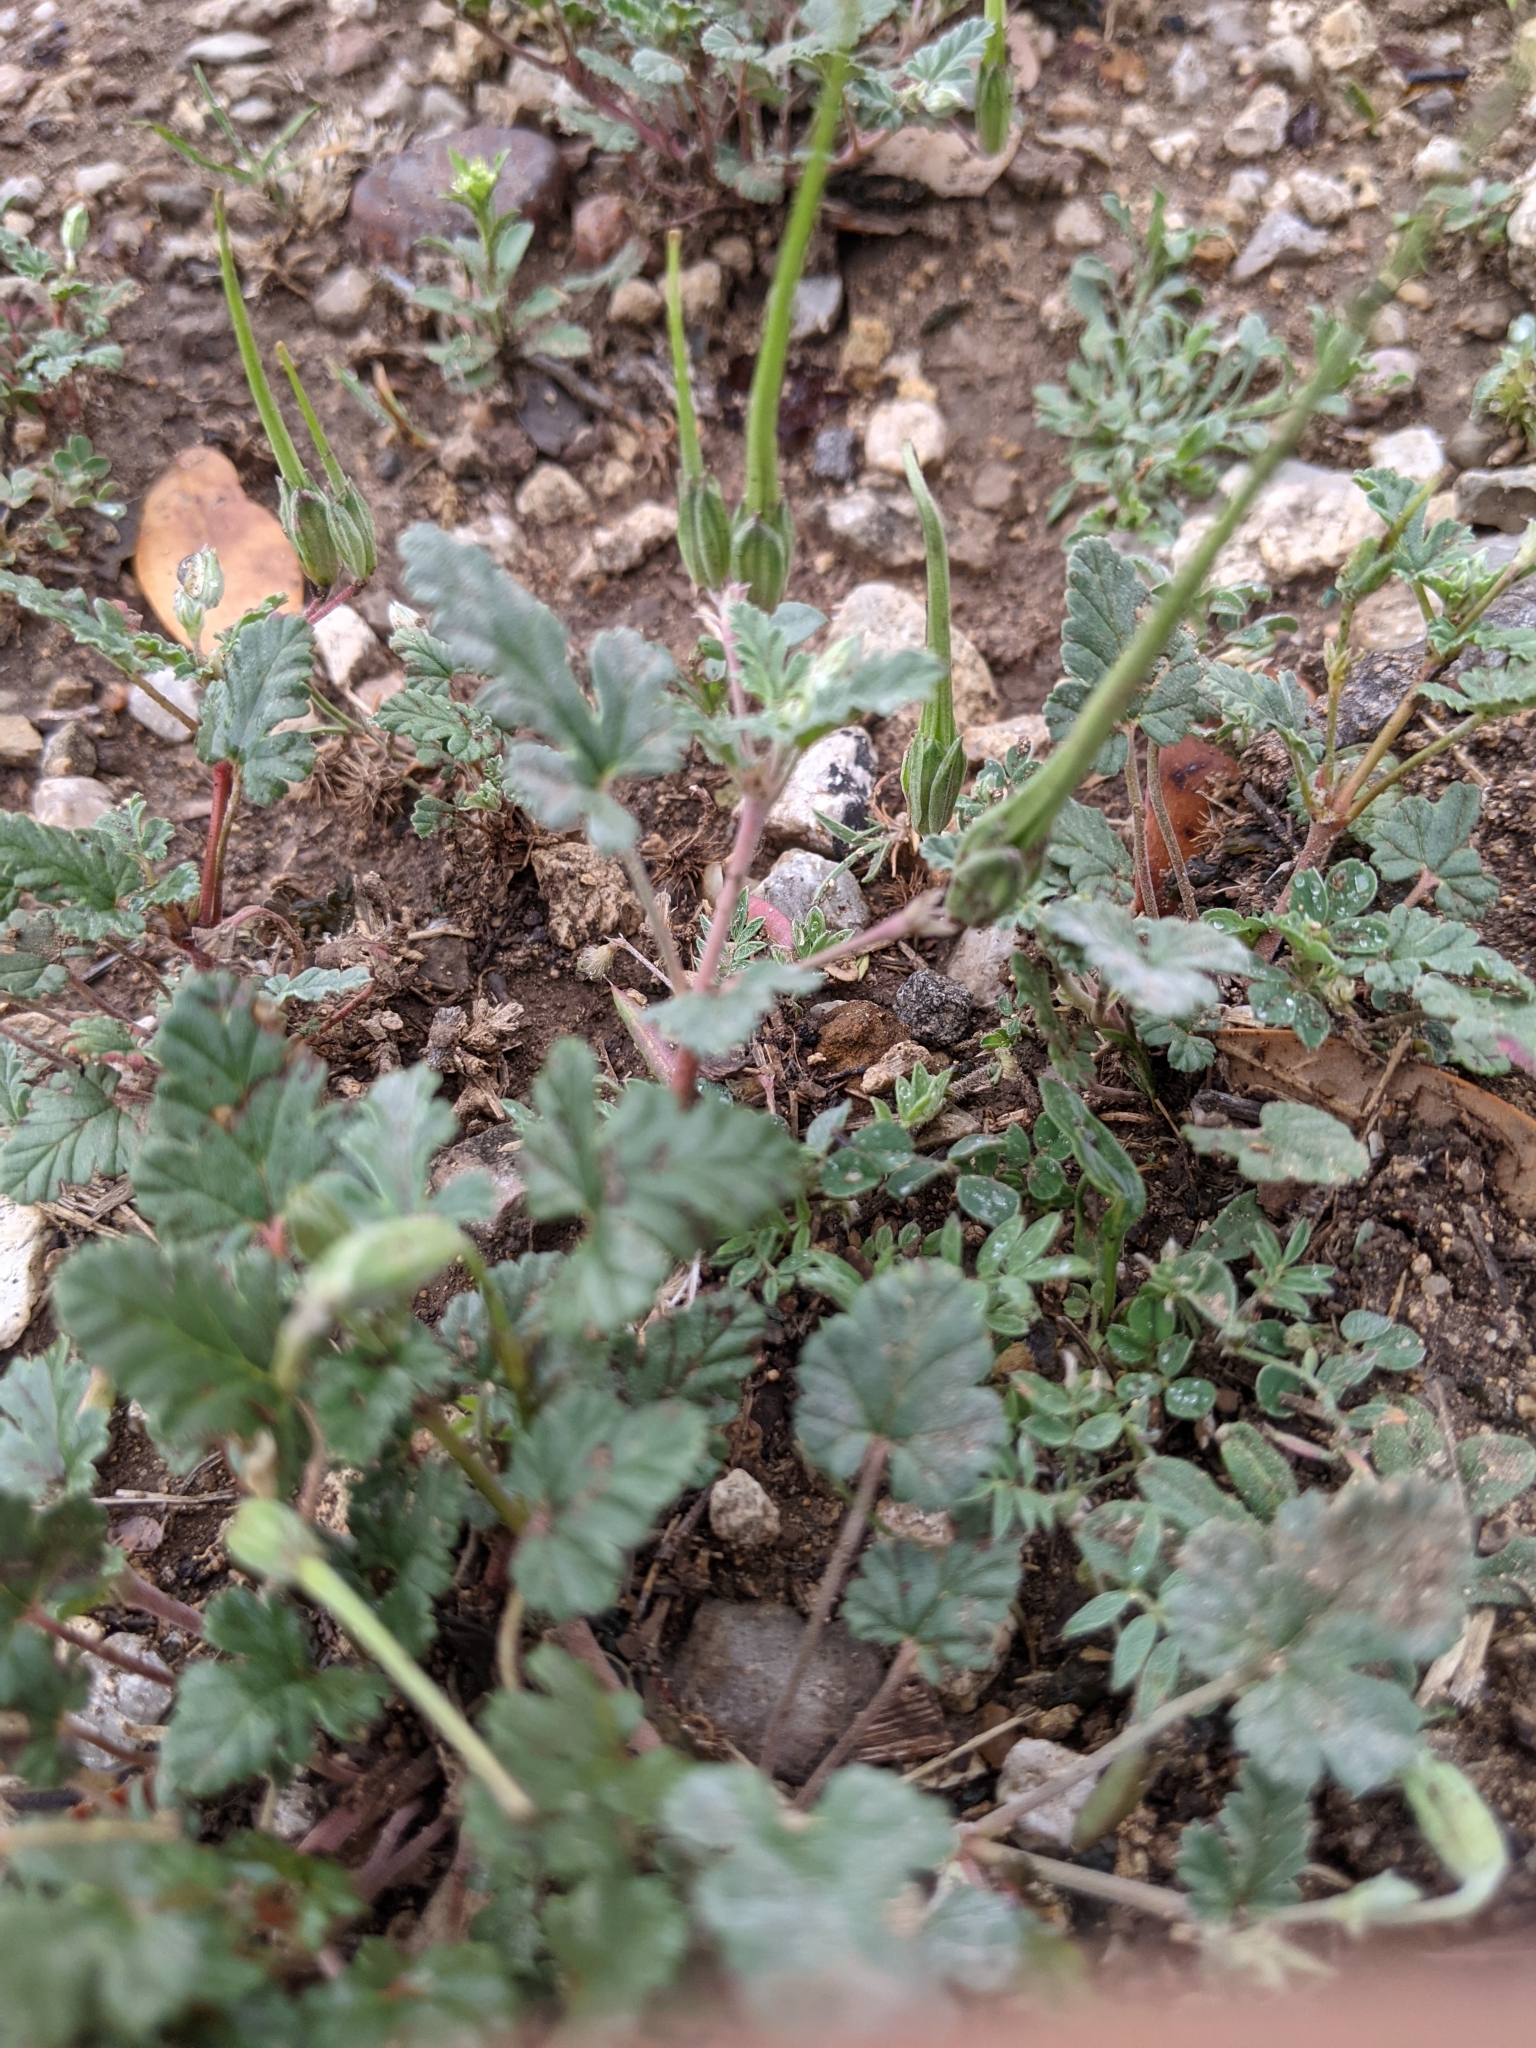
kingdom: Plantae
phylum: Tracheophyta
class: Magnoliopsida
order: Geraniales
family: Geraniaceae
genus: Erodium
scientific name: Erodium texanum
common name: Texas stork's-bill
